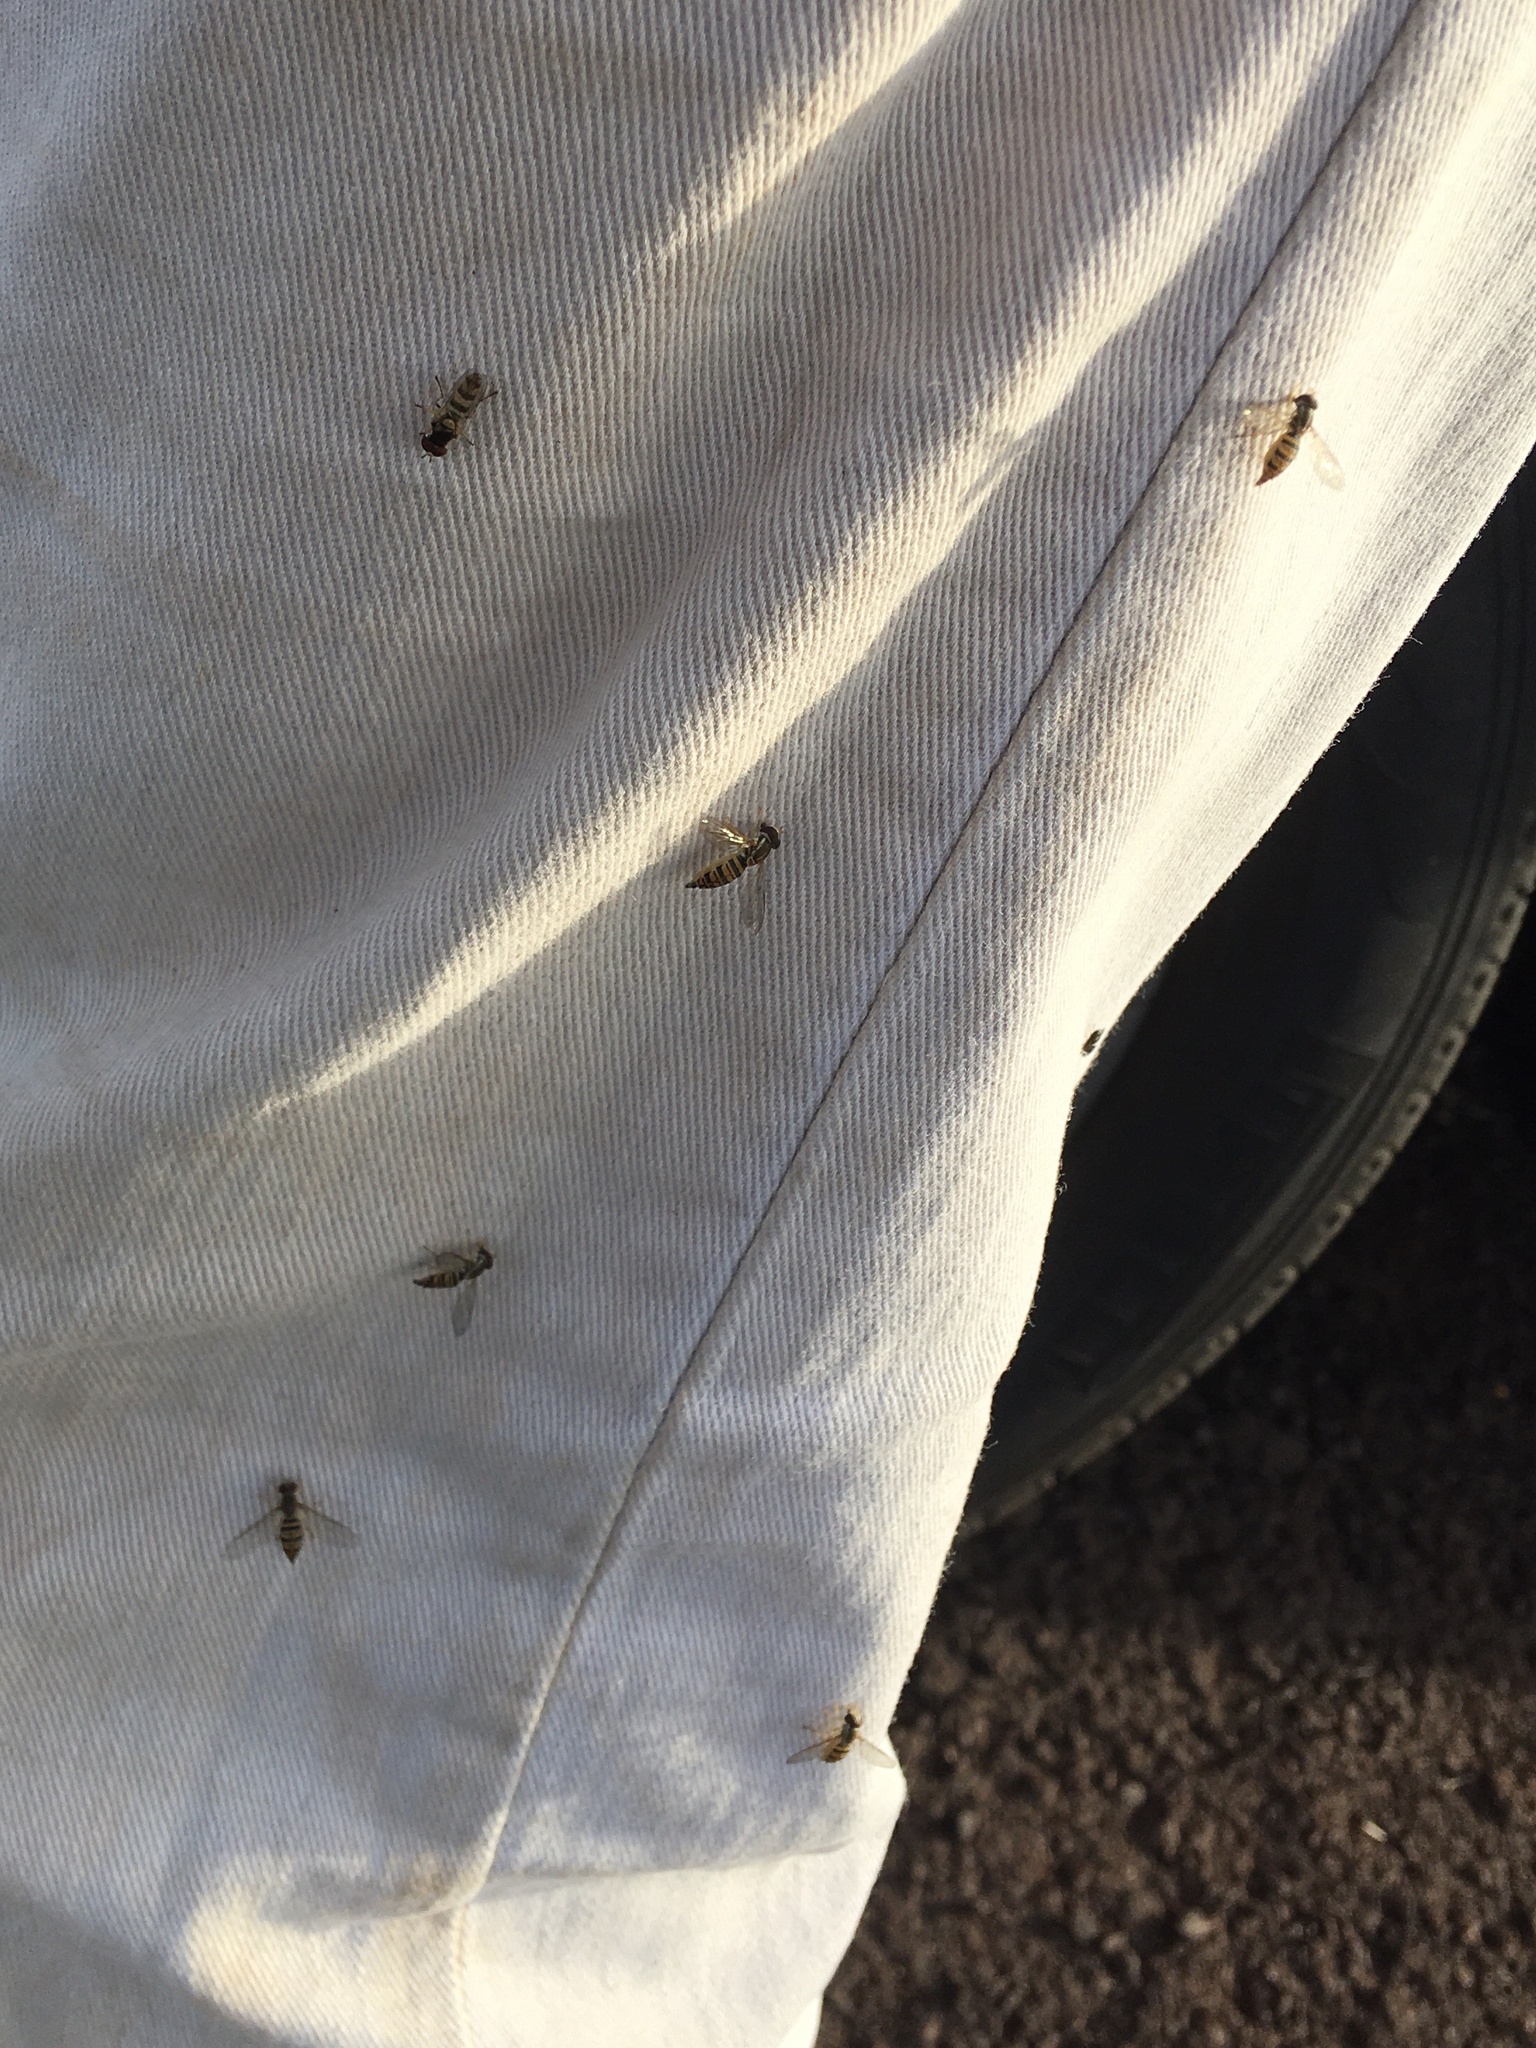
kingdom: Animalia
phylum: Arthropoda
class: Insecta
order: Diptera
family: Syrphidae
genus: Toxomerus
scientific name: Toxomerus politus
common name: Maize calligrapher
